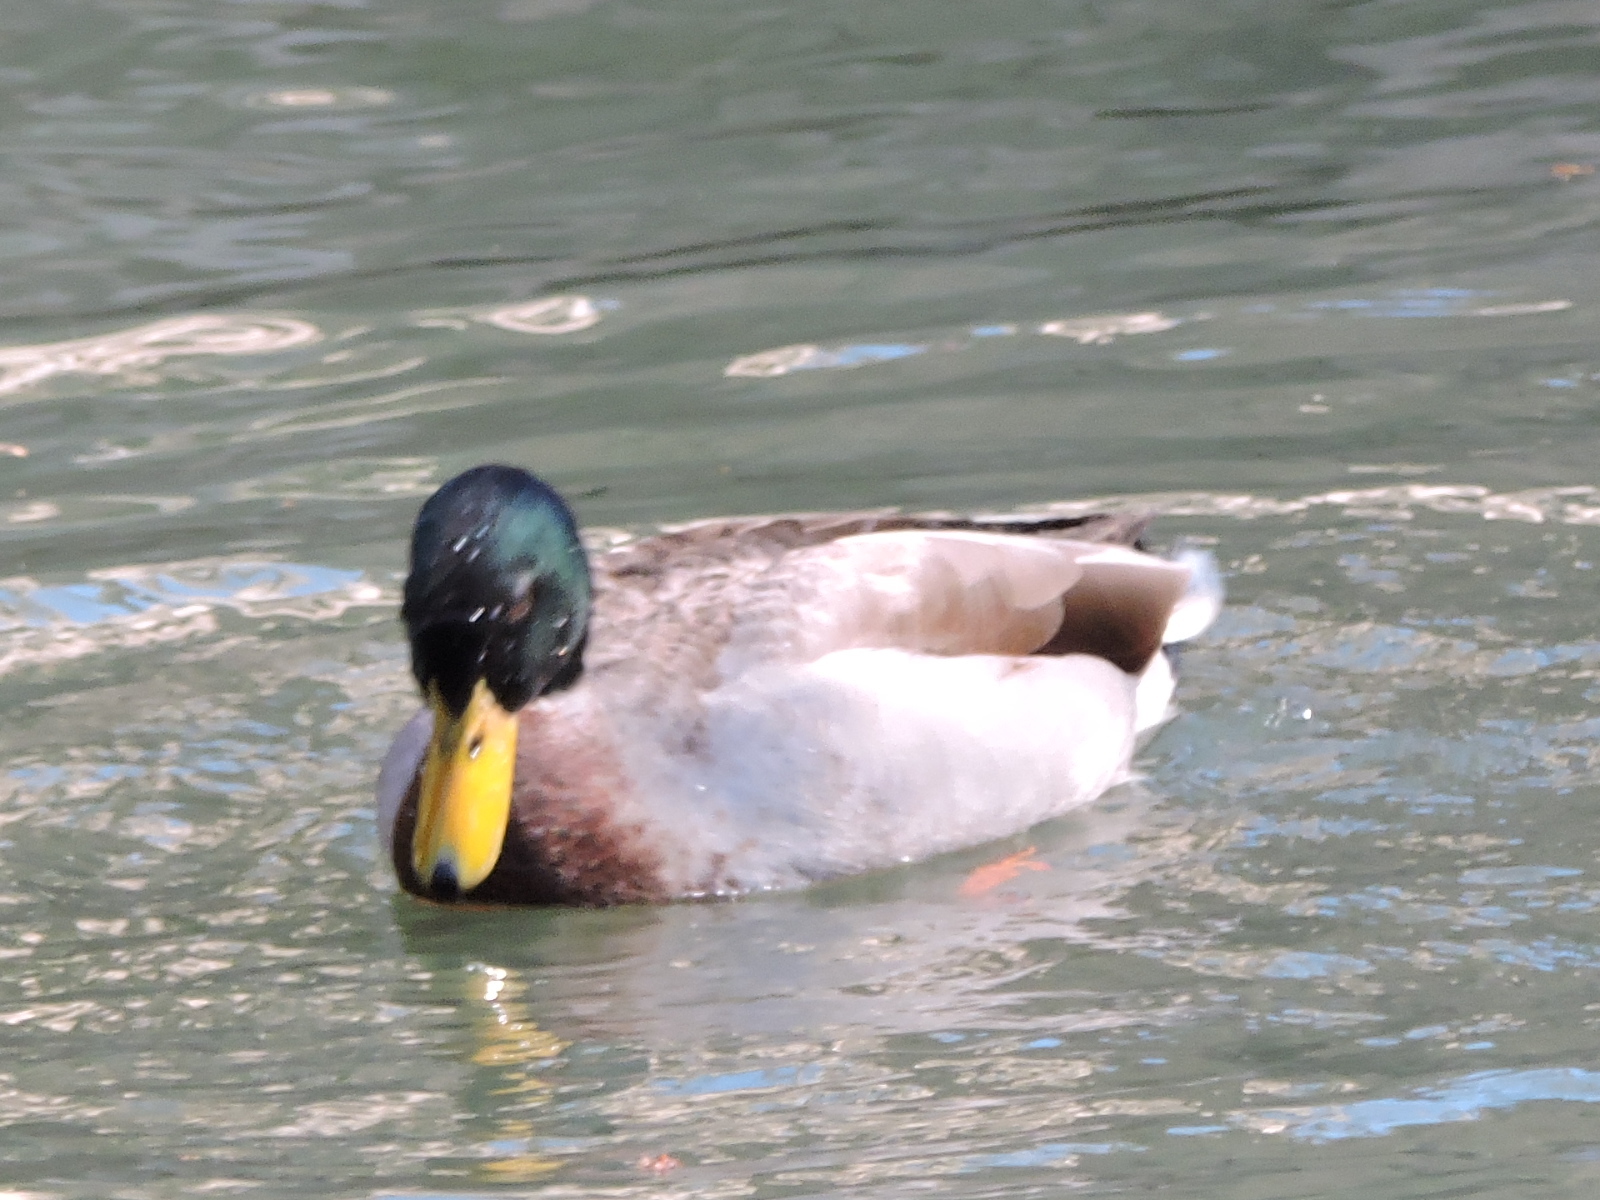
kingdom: Animalia
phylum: Chordata
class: Aves
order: Anseriformes
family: Anatidae
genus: Anas
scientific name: Anas platyrhynchos
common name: Mallard
